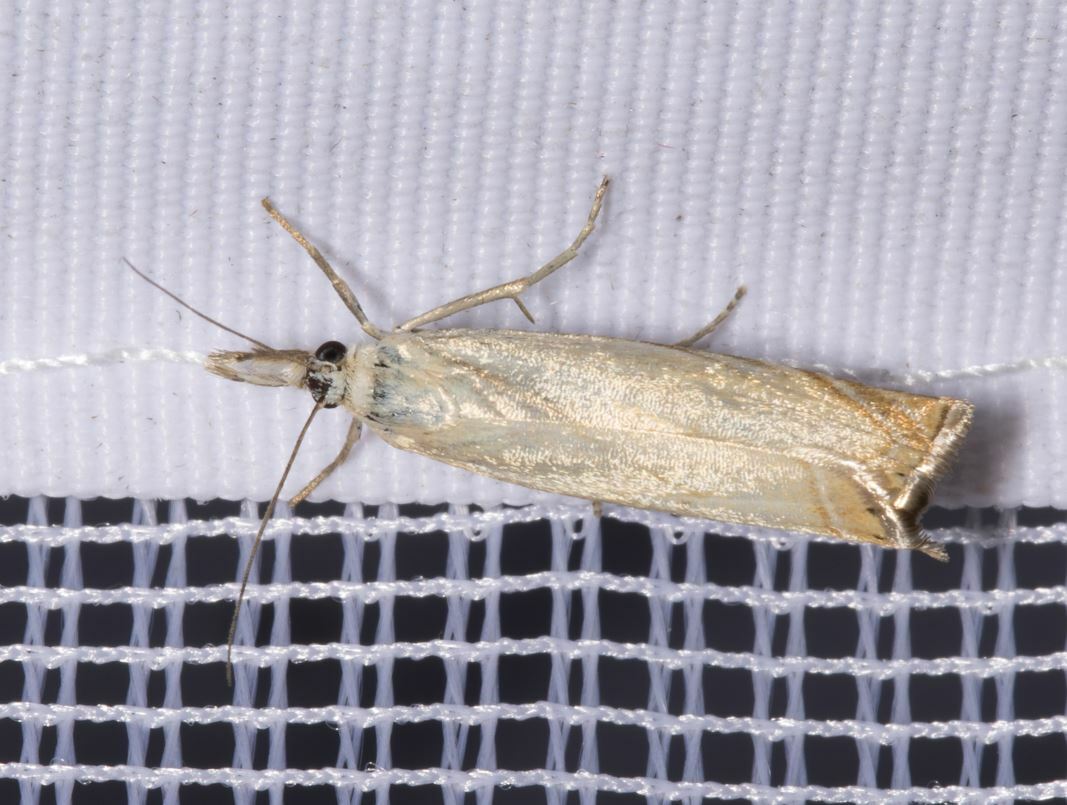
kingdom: Animalia
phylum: Arthropoda
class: Insecta
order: Lepidoptera
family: Crambidae
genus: Chrysoteuchia
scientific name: Chrysoteuchia culmella
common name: Garden grass-veneer
